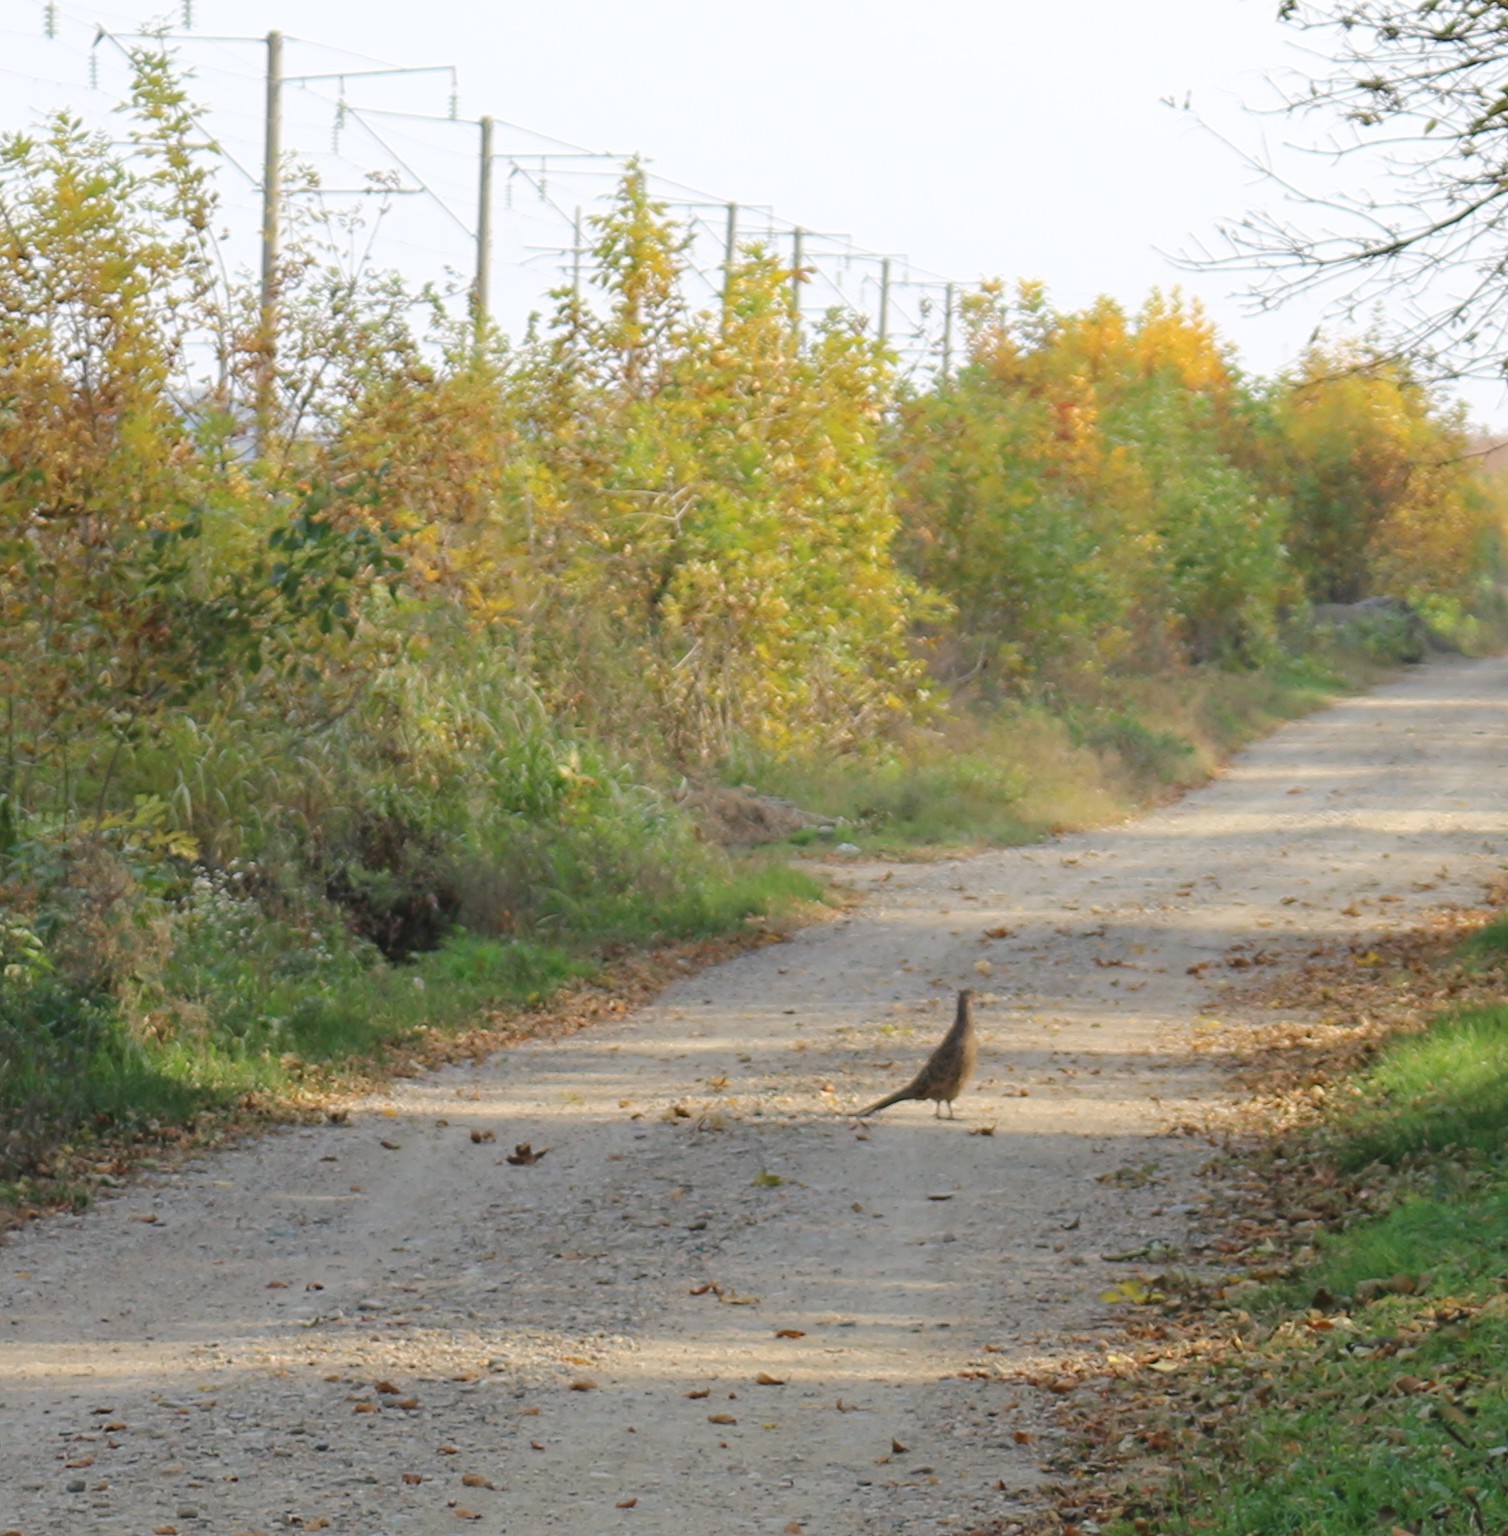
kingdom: Animalia
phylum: Chordata
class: Aves
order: Galliformes
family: Phasianidae
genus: Phasianus
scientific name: Phasianus colchicus
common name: Common pheasant
